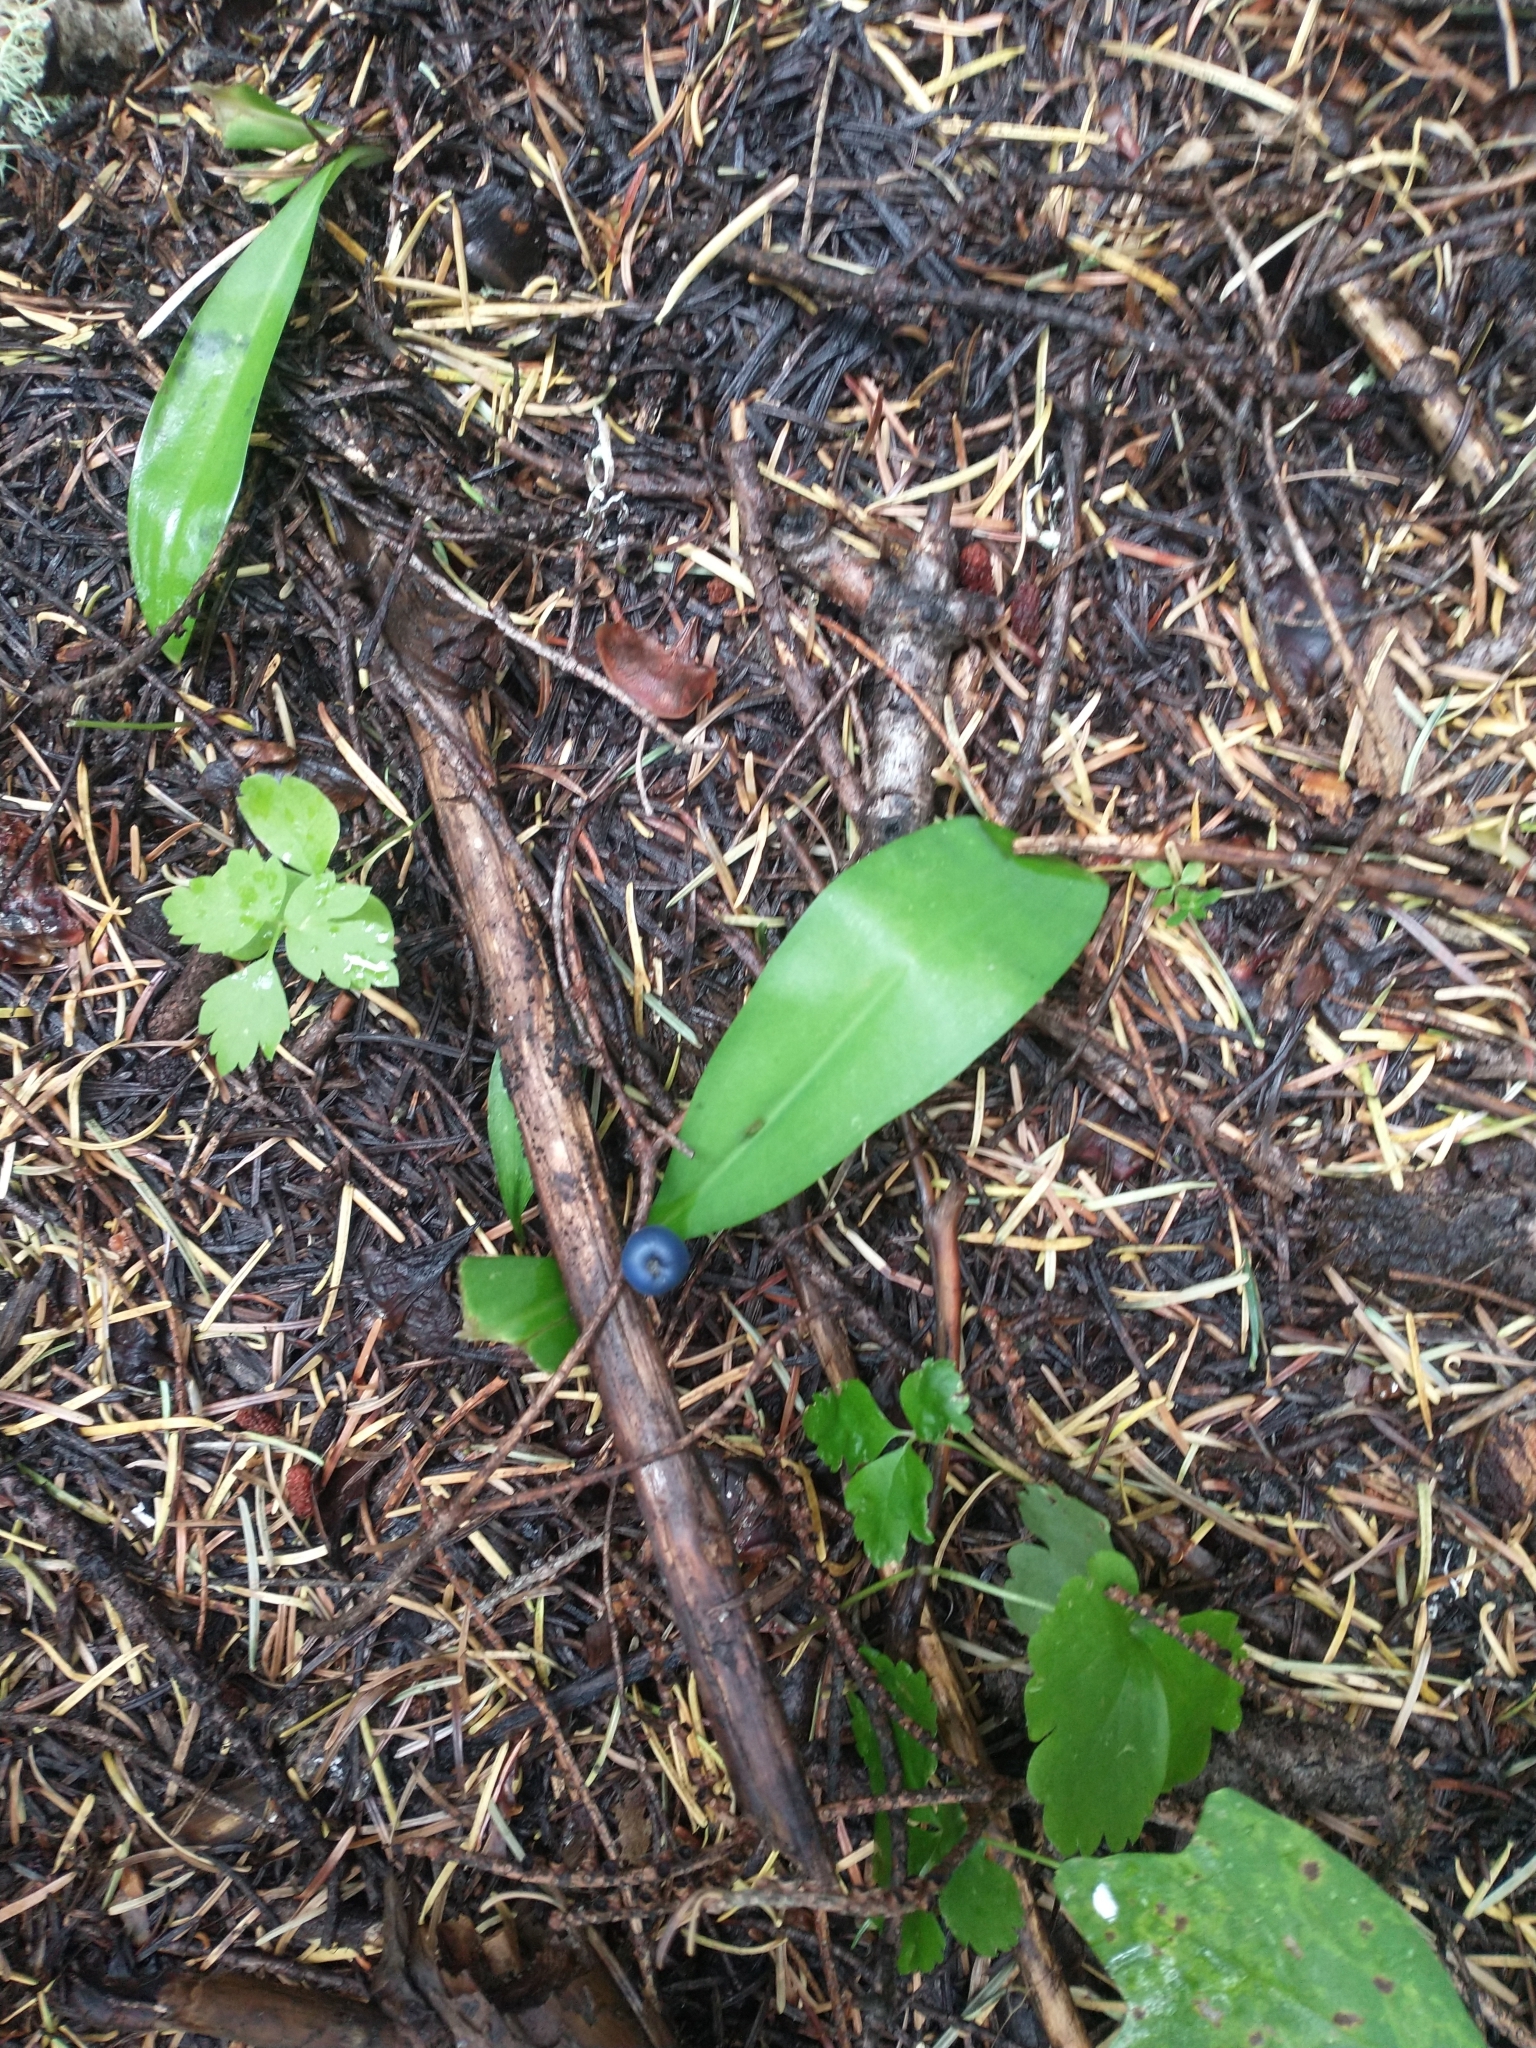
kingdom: Plantae
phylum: Tracheophyta
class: Liliopsida
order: Liliales
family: Liliaceae
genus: Clintonia
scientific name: Clintonia uniflora
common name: Queen's cup
